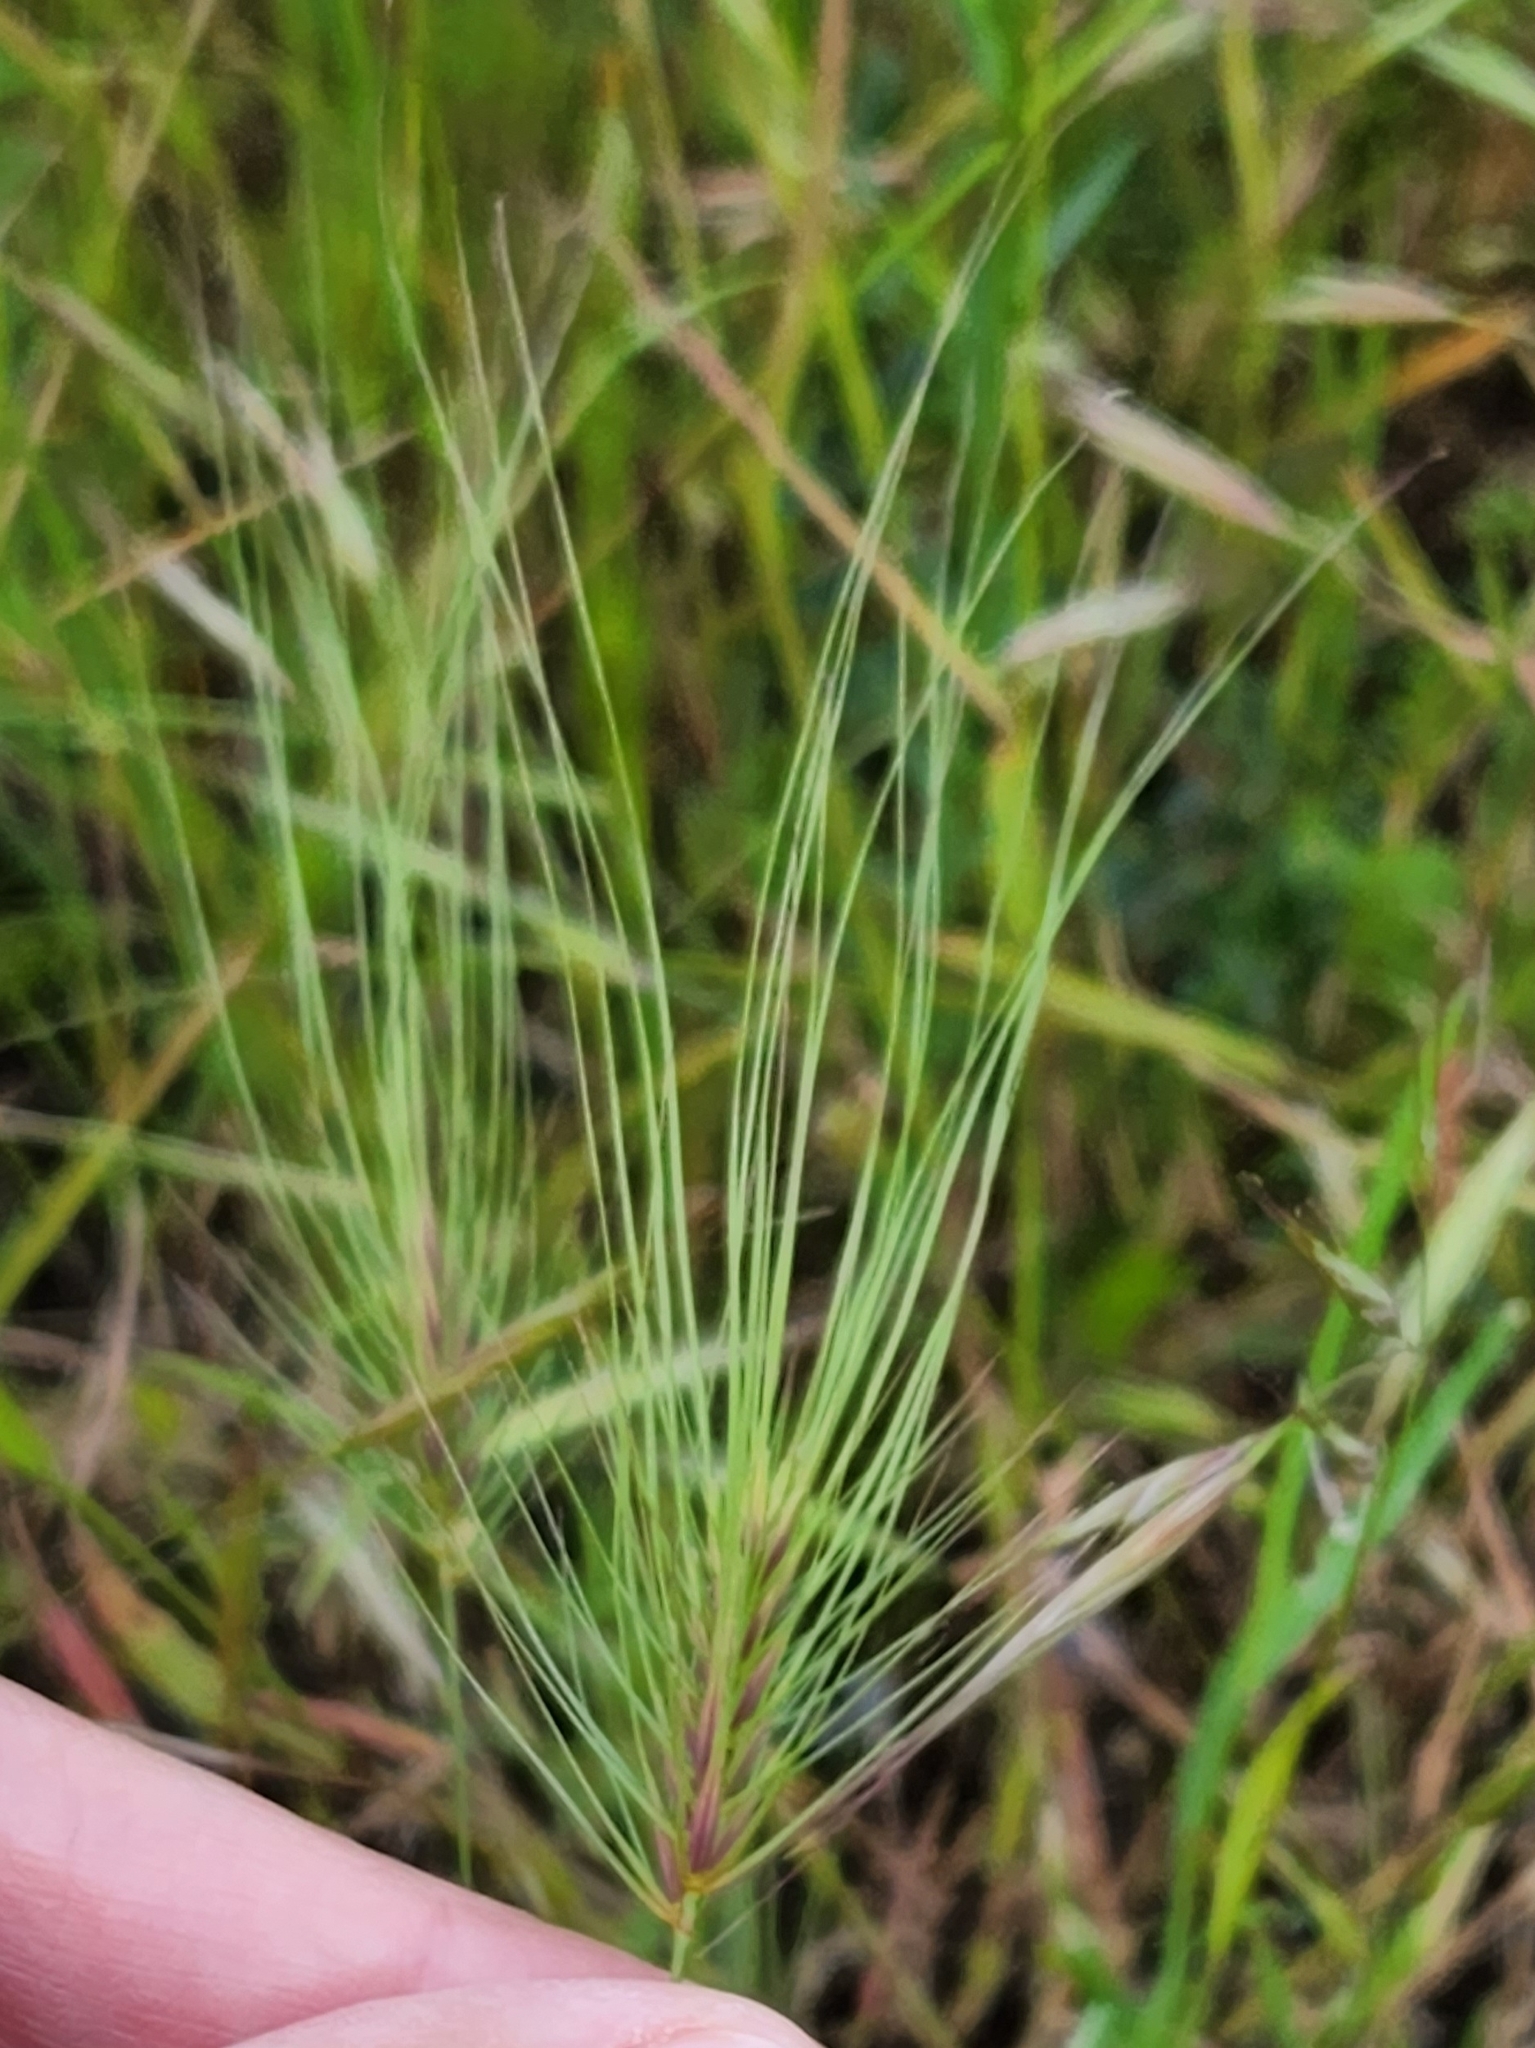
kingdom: Plantae
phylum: Tracheophyta
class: Liliopsida
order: Poales
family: Poaceae
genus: Taeniatherum
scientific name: Taeniatherum caput-medusae
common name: Medusahead
